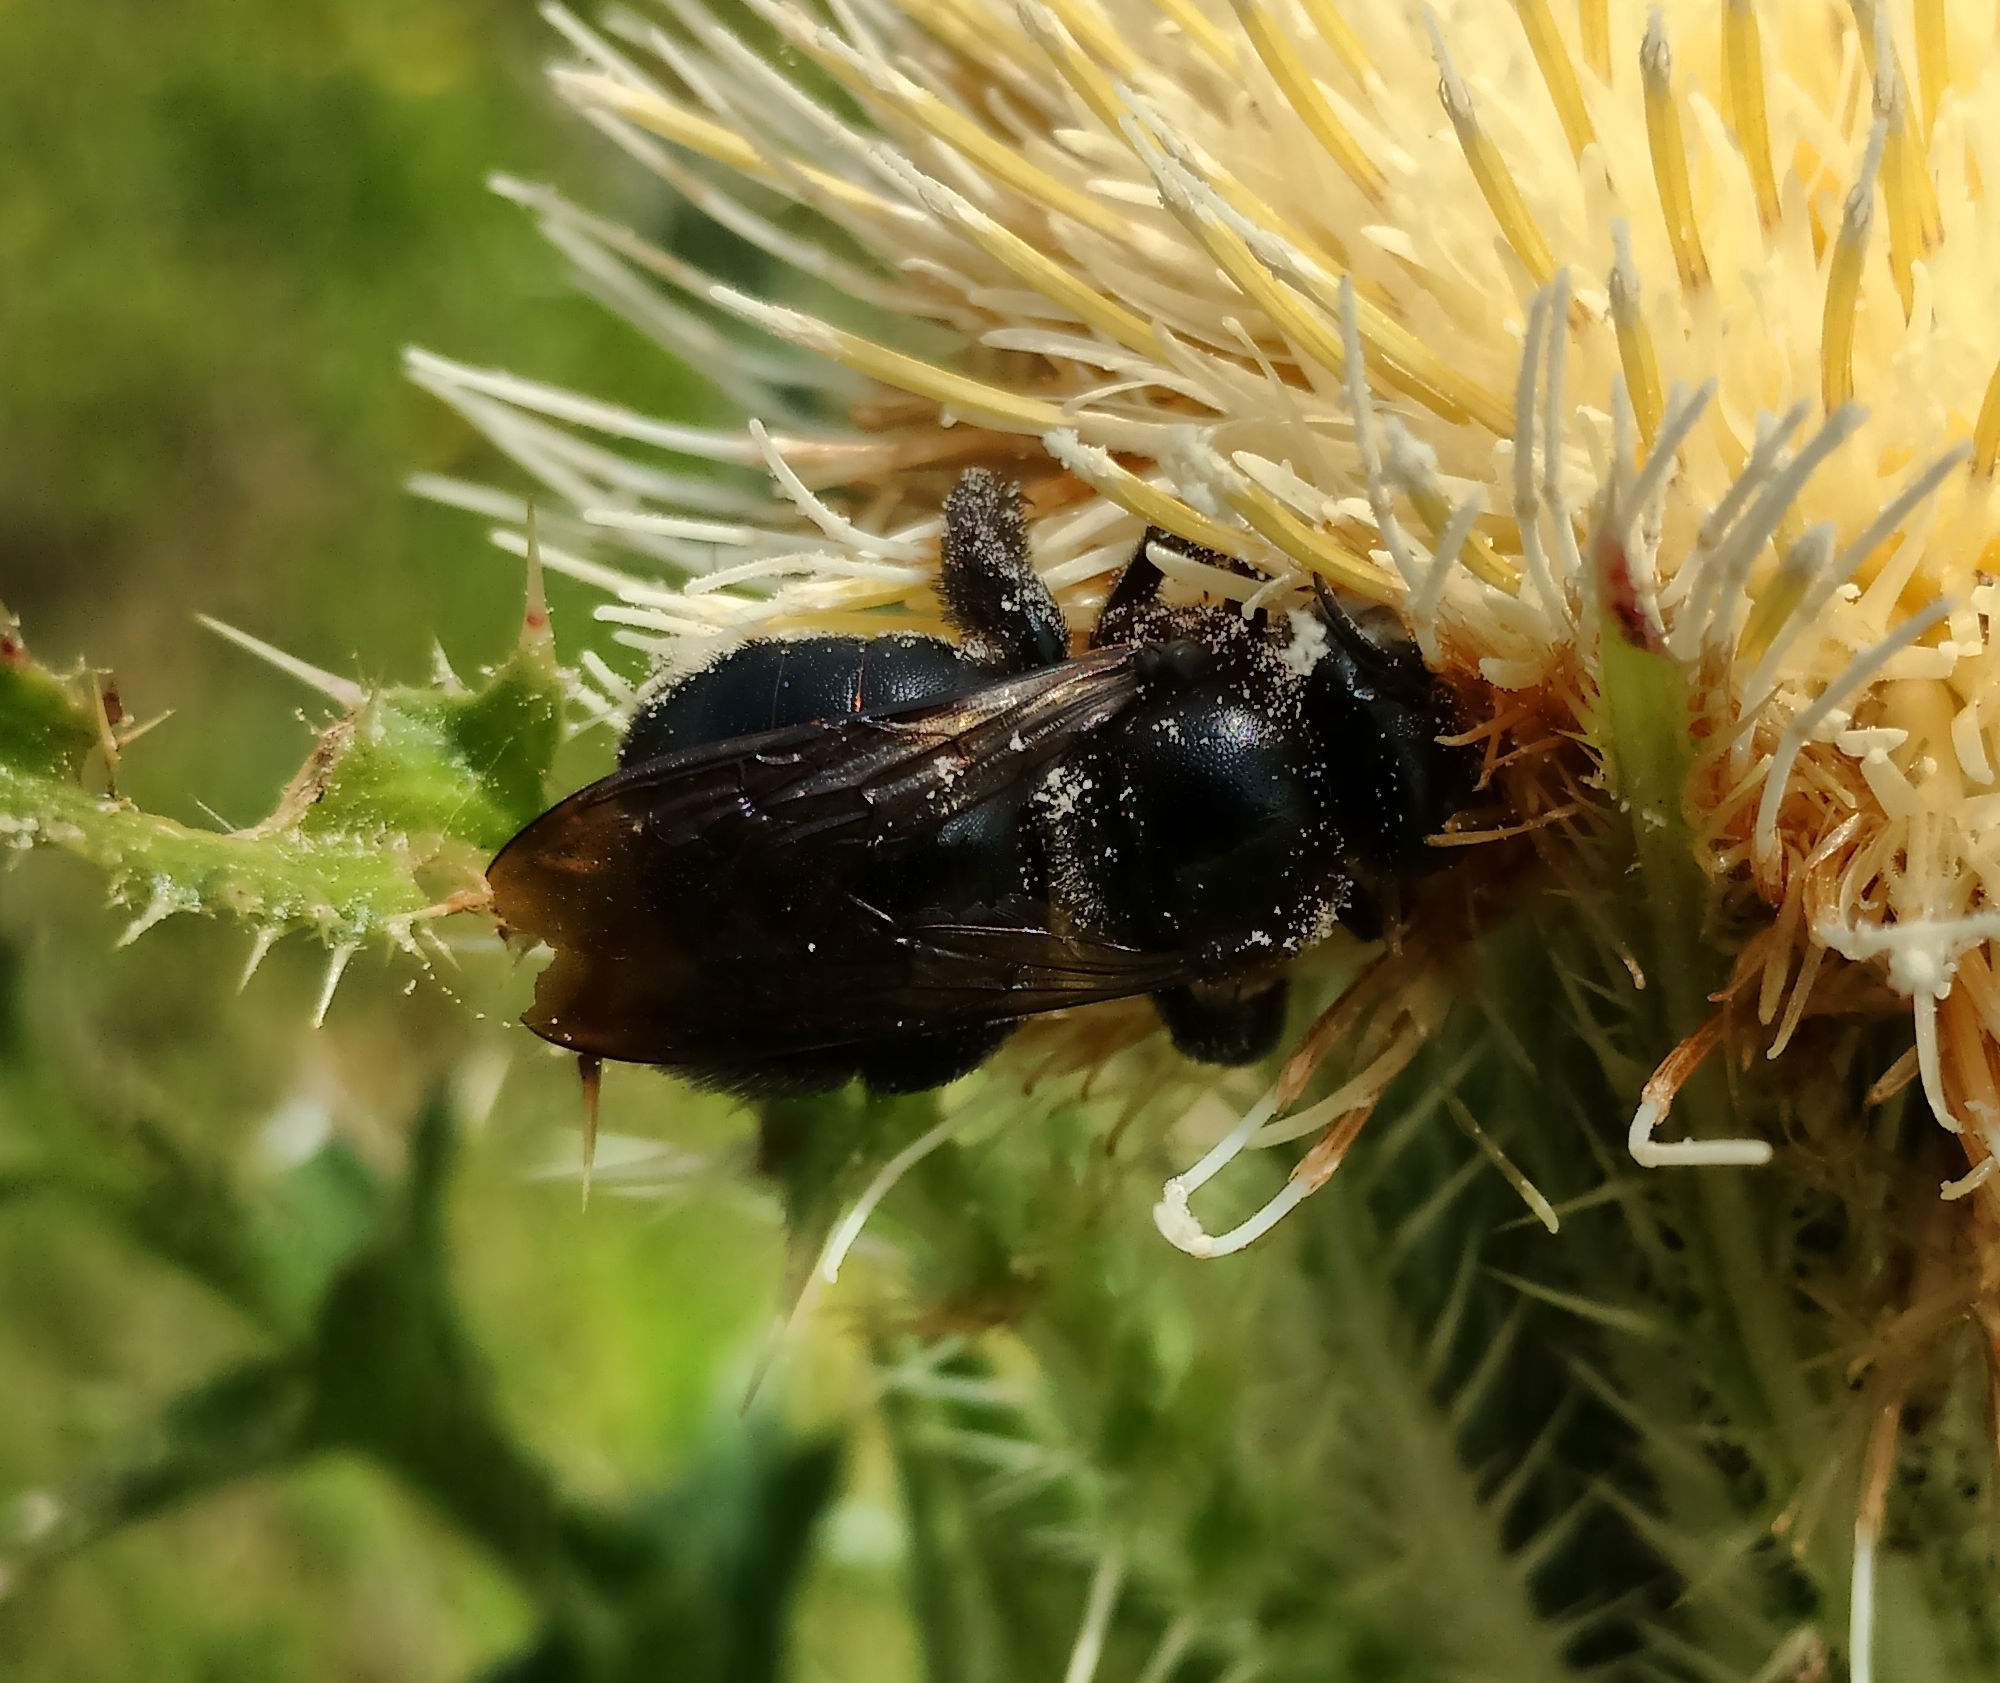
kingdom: Animalia
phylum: Arthropoda
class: Insecta
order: Hymenoptera
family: Apidae
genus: Xylocopa
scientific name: Xylocopa micans
